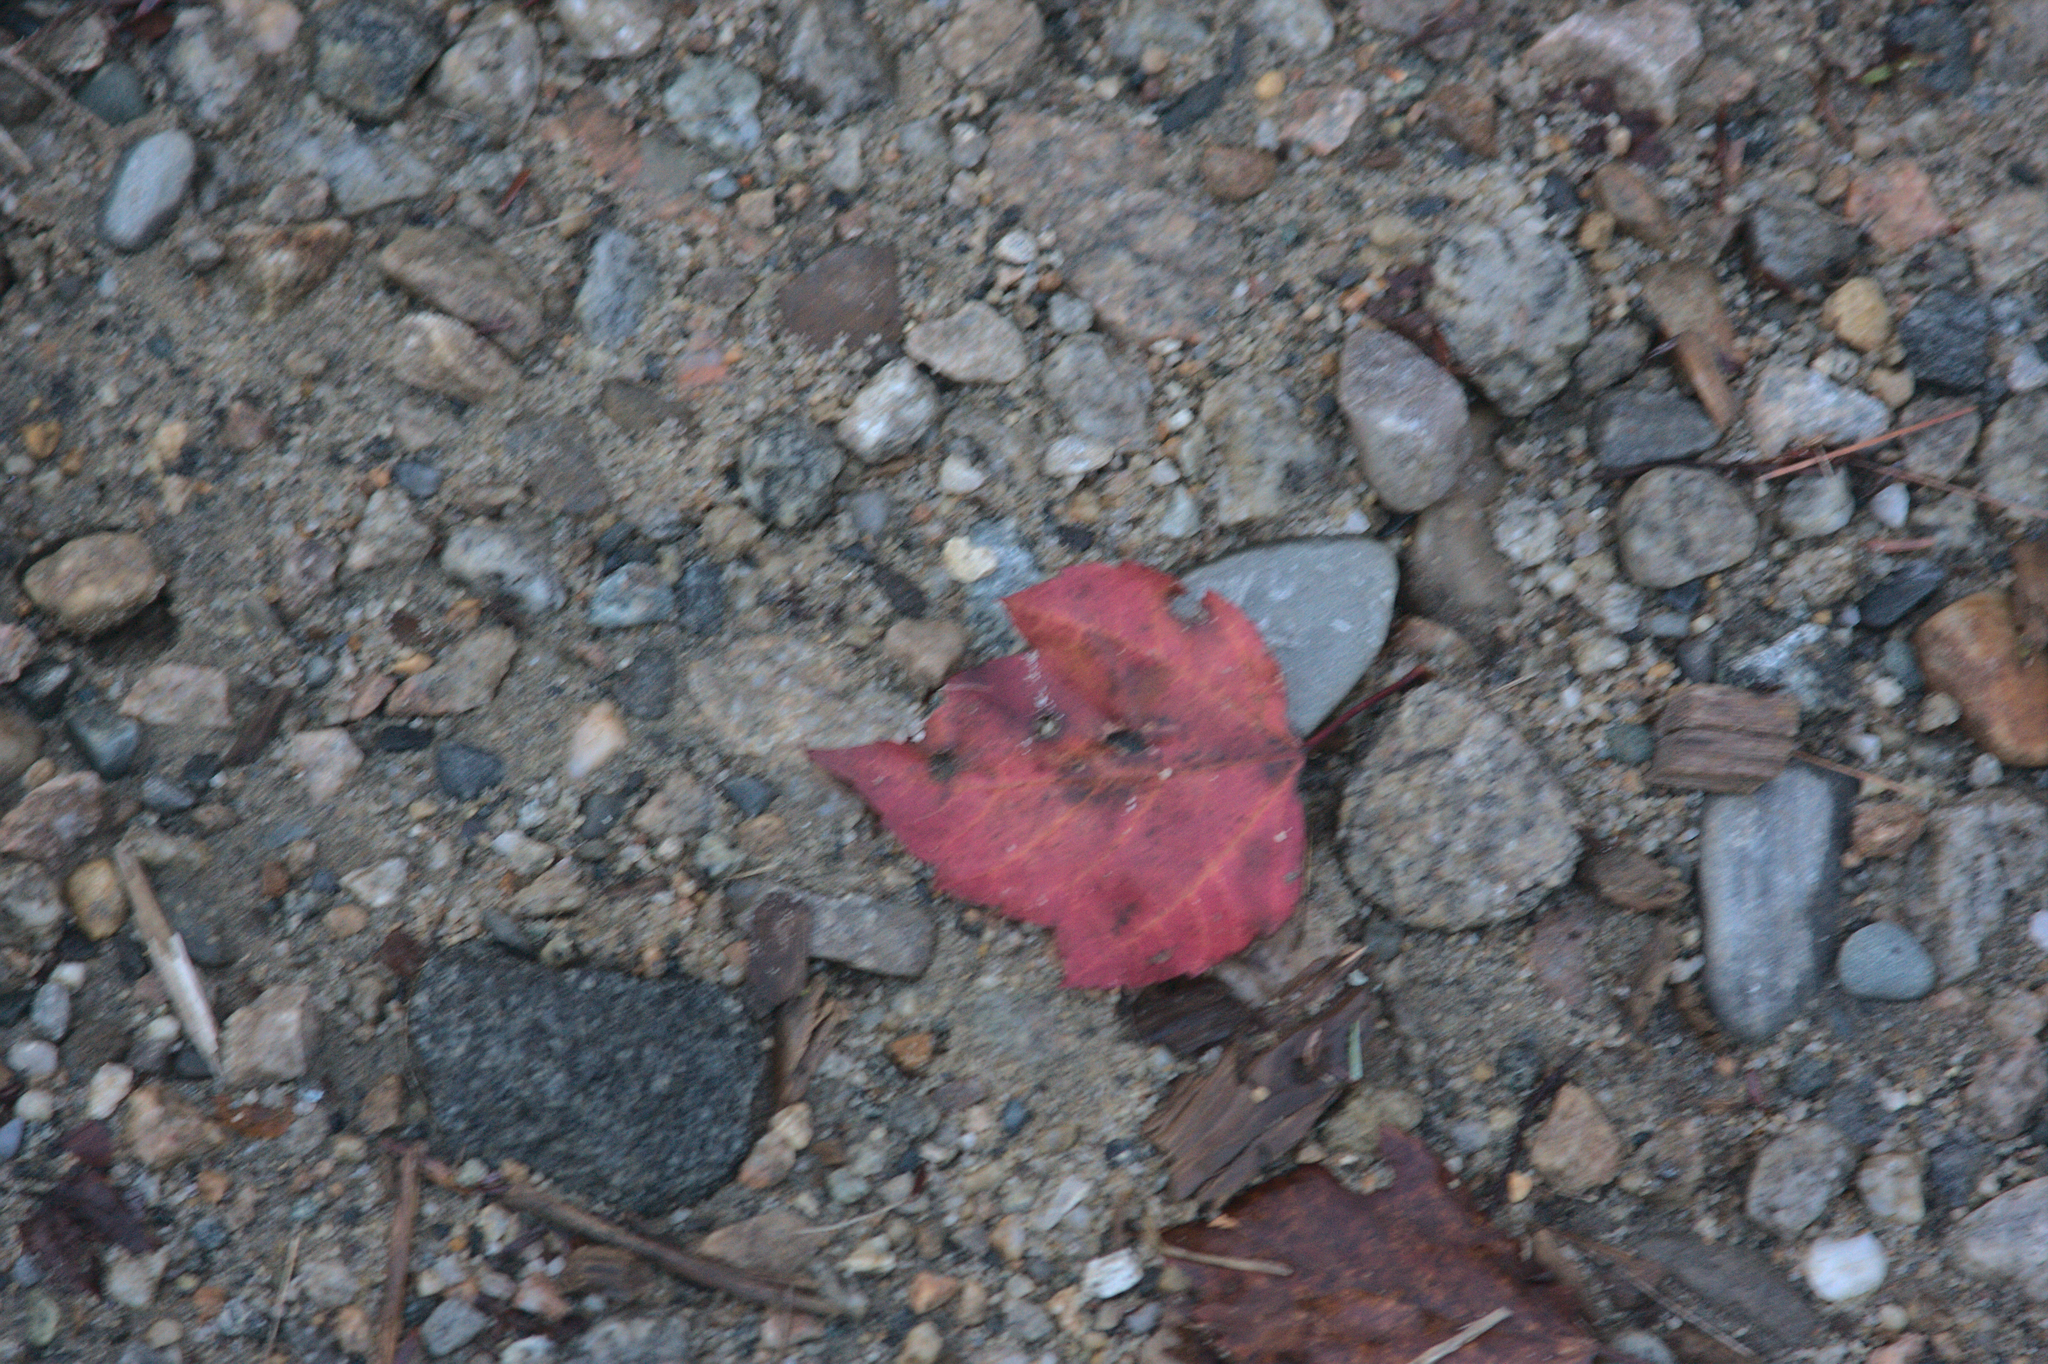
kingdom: Plantae
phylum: Tracheophyta
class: Magnoliopsida
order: Sapindales
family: Sapindaceae
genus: Acer
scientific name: Acer rubrum
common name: Red maple
